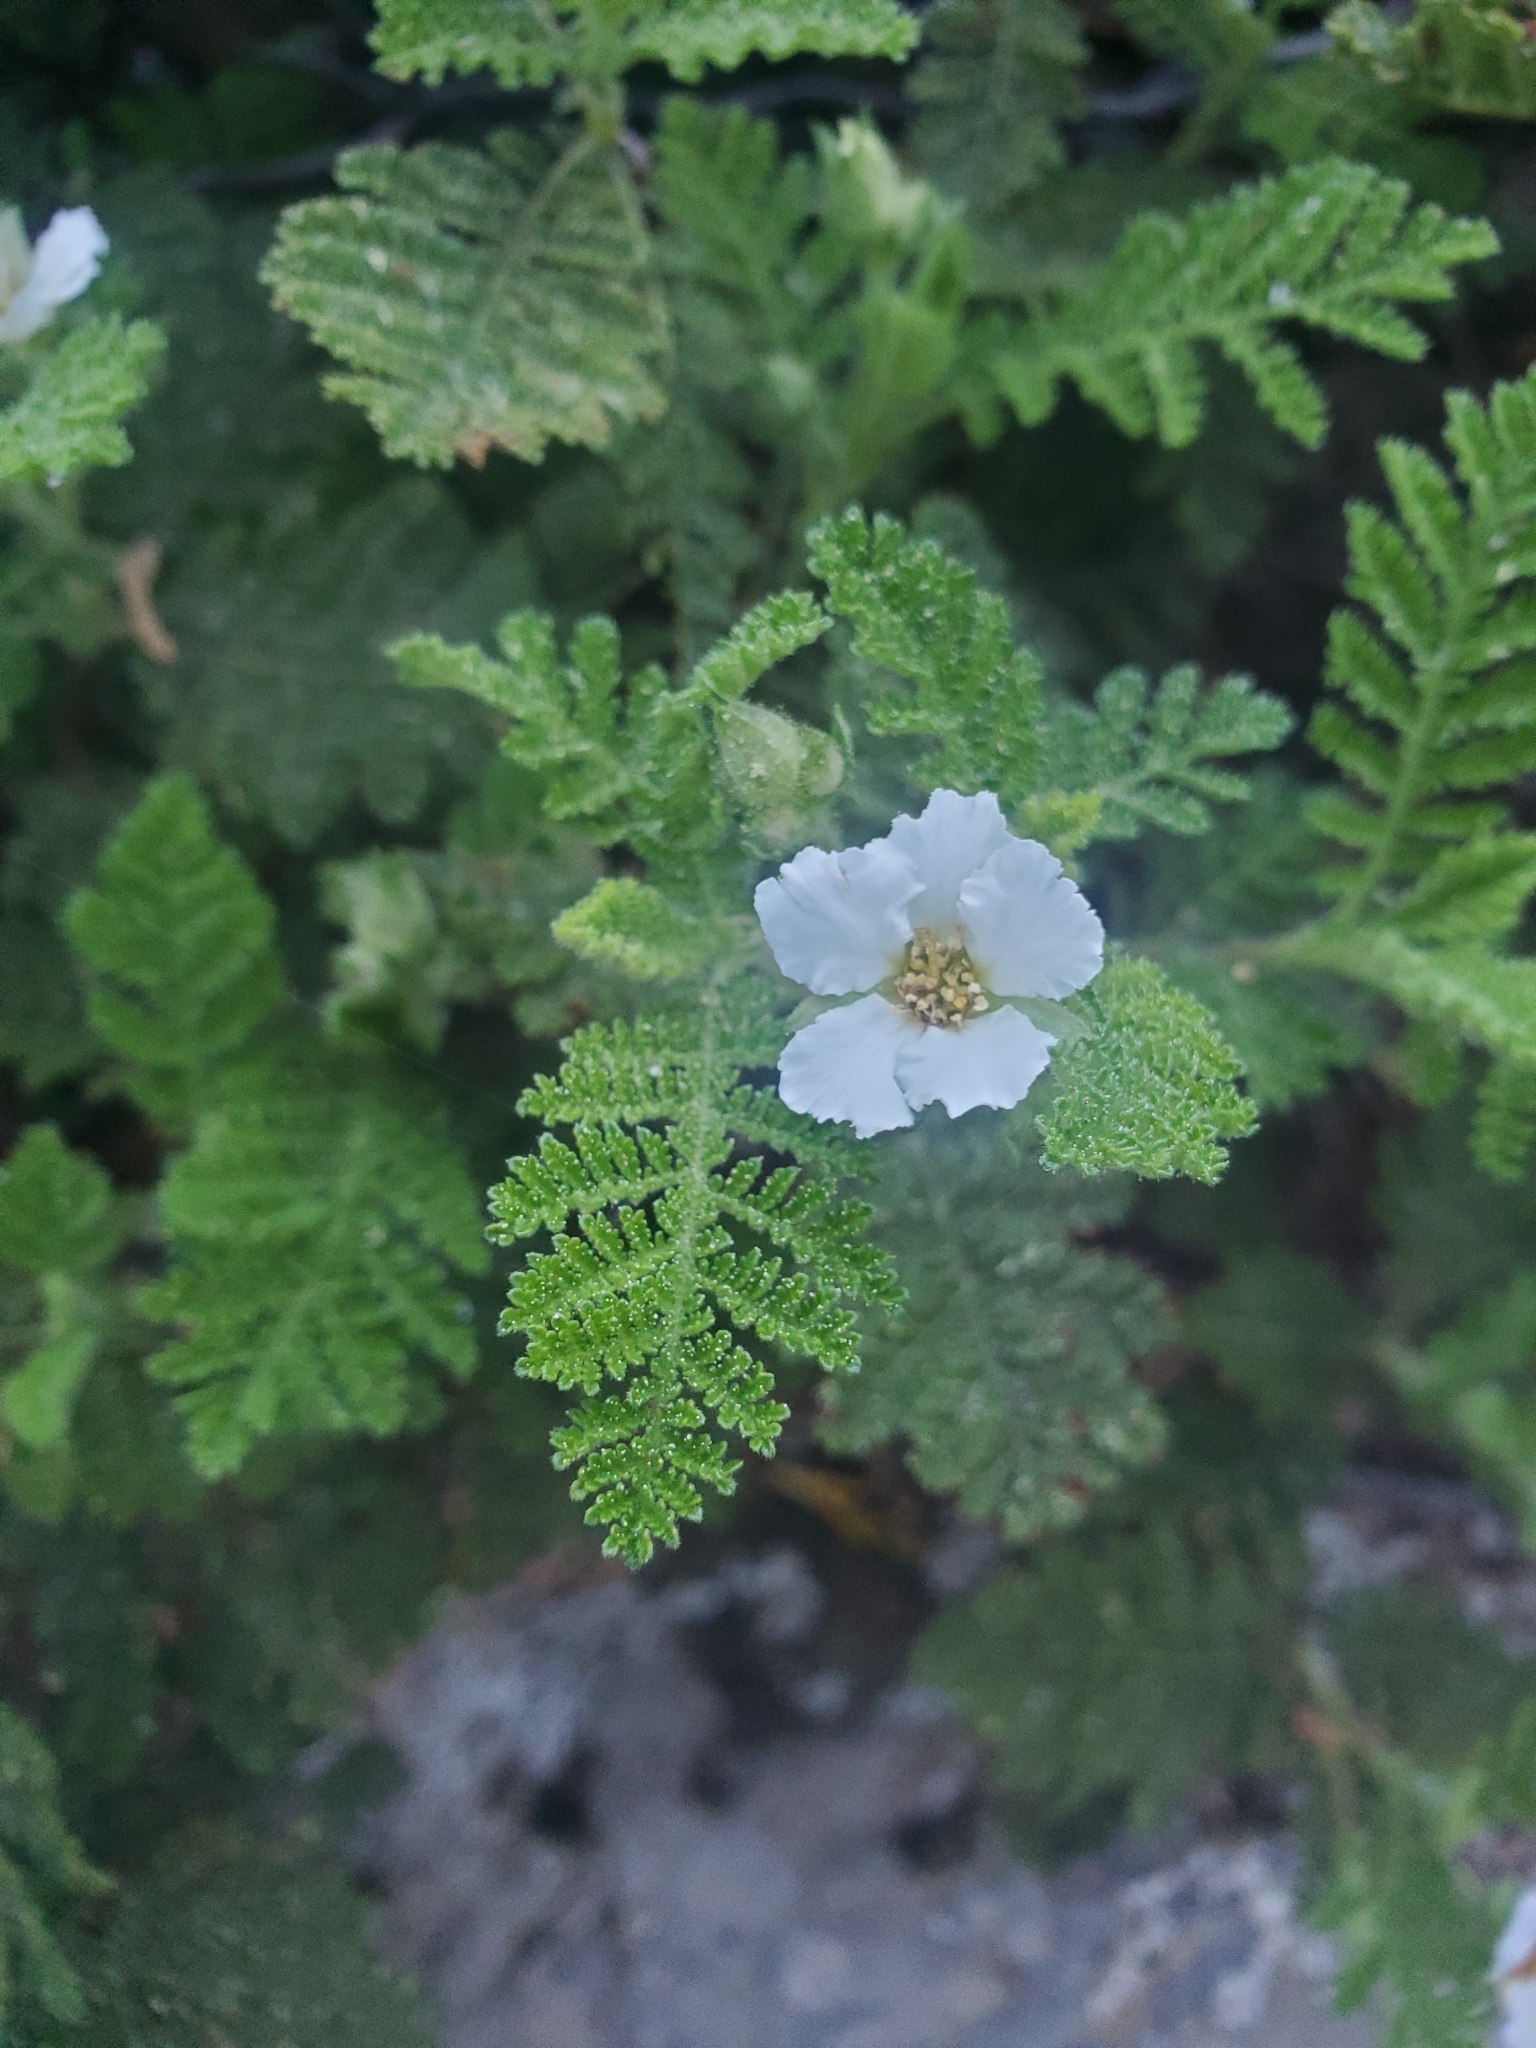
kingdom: Plantae
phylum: Tracheophyta
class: Magnoliopsida
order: Rosales
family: Rosaceae
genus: Chamaebatia
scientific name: Chamaebatia foliolosa
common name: Mountain misery
